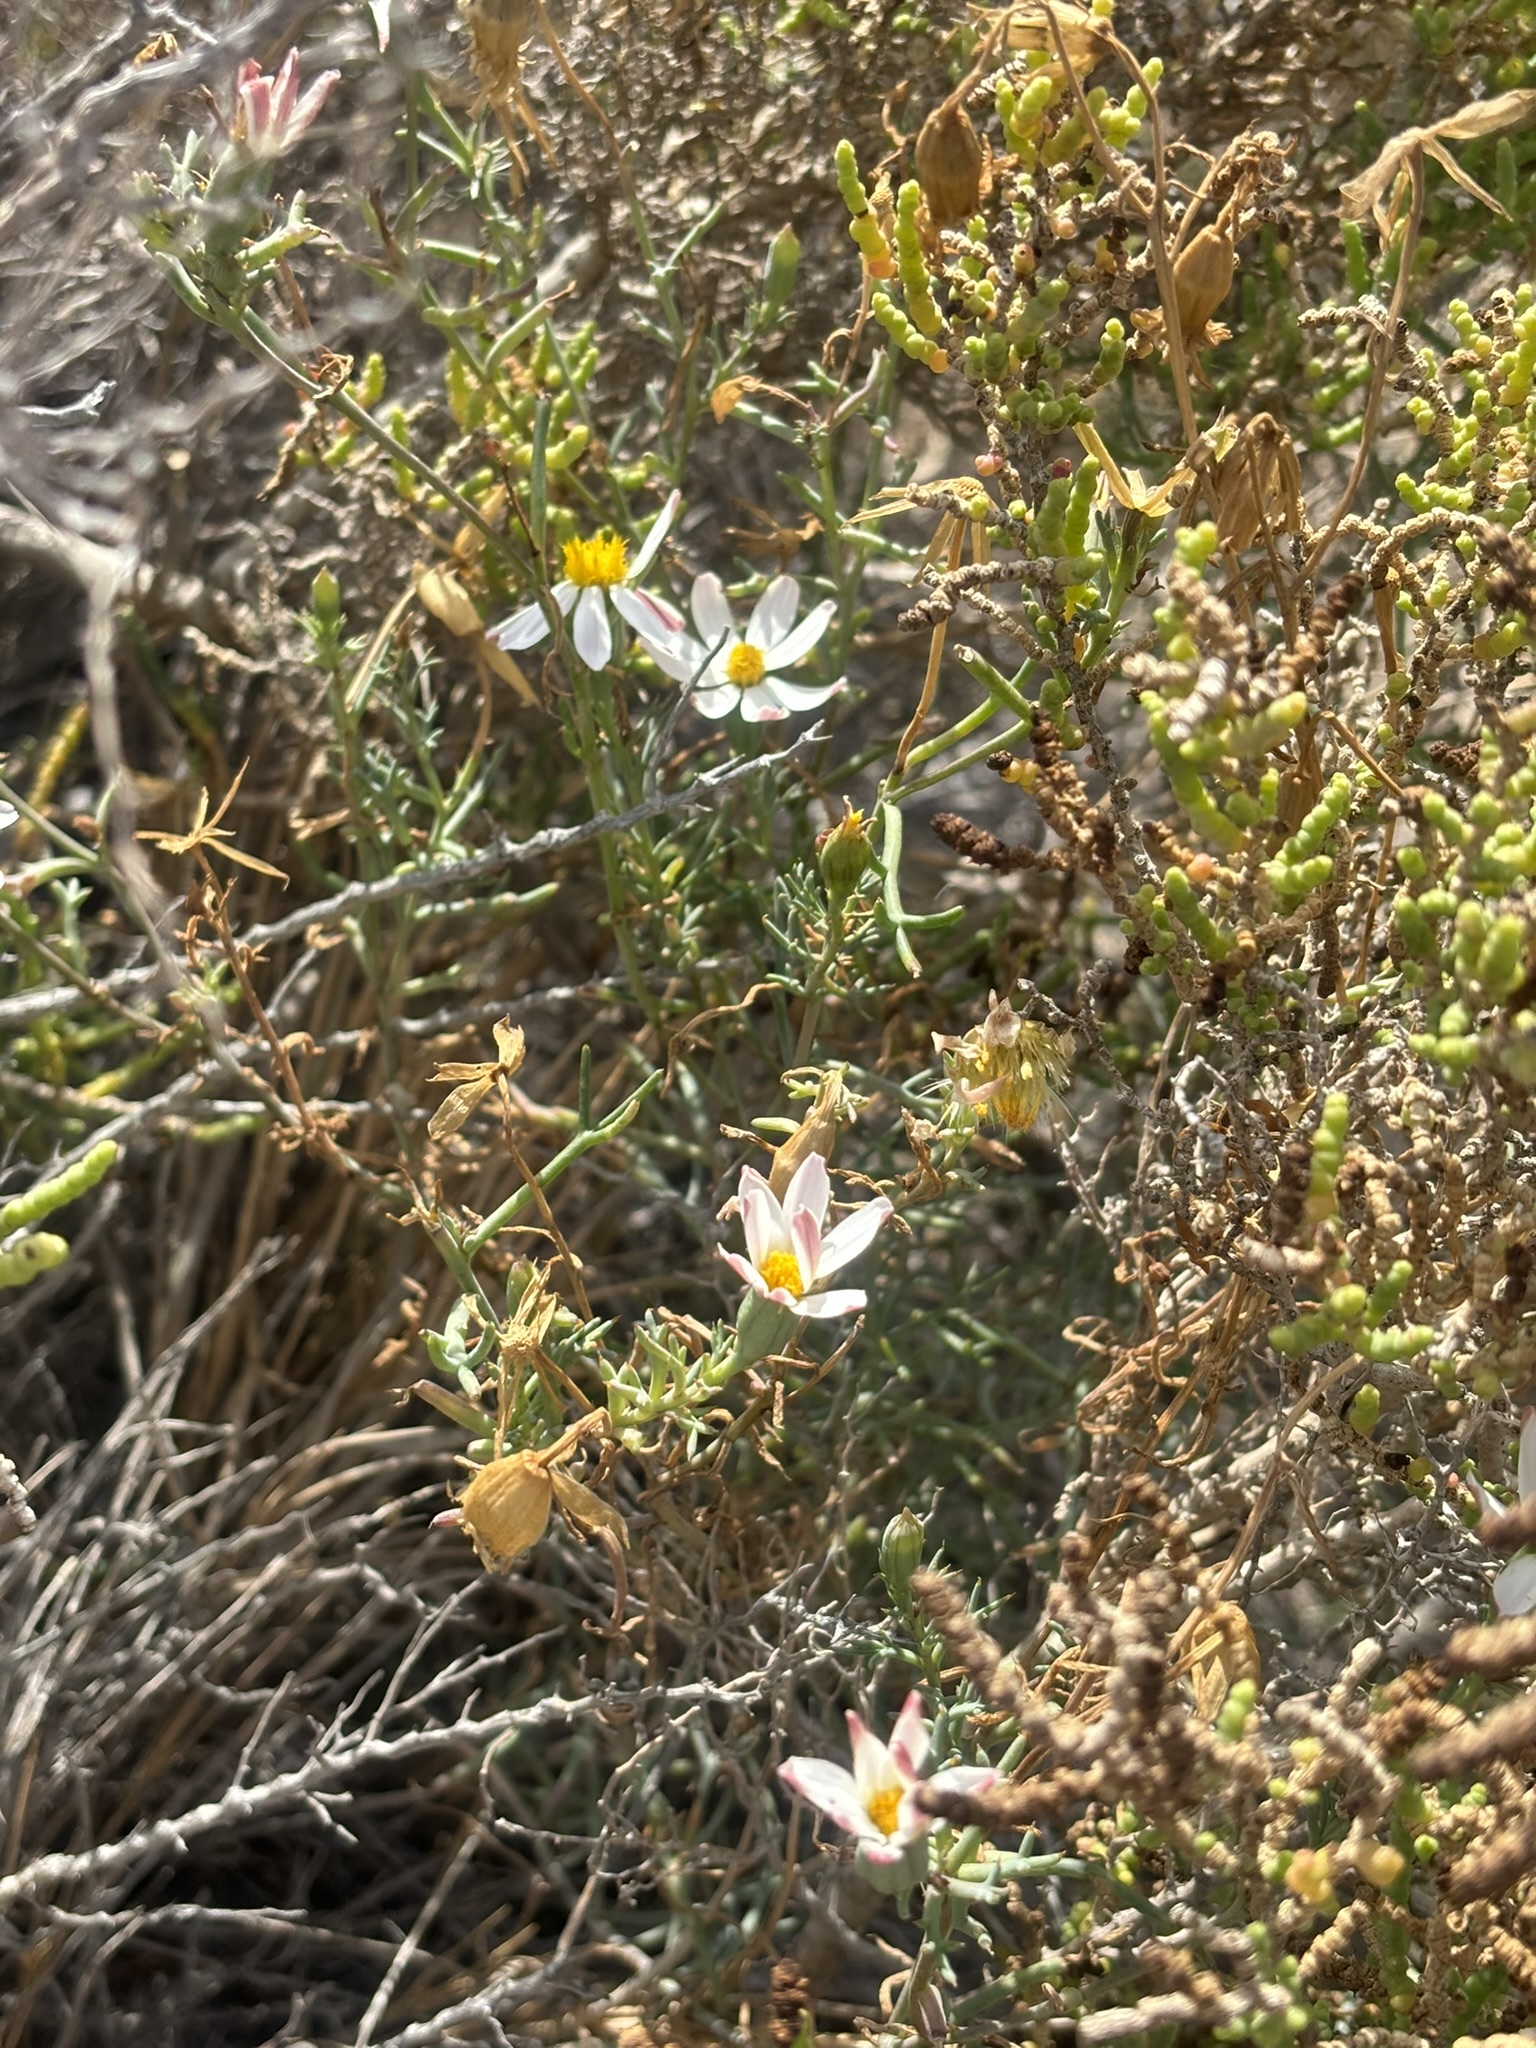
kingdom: Plantae
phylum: Tracheophyta
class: Magnoliopsida
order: Asterales
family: Asteraceae
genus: Nicolletia
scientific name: Nicolletia trifida
